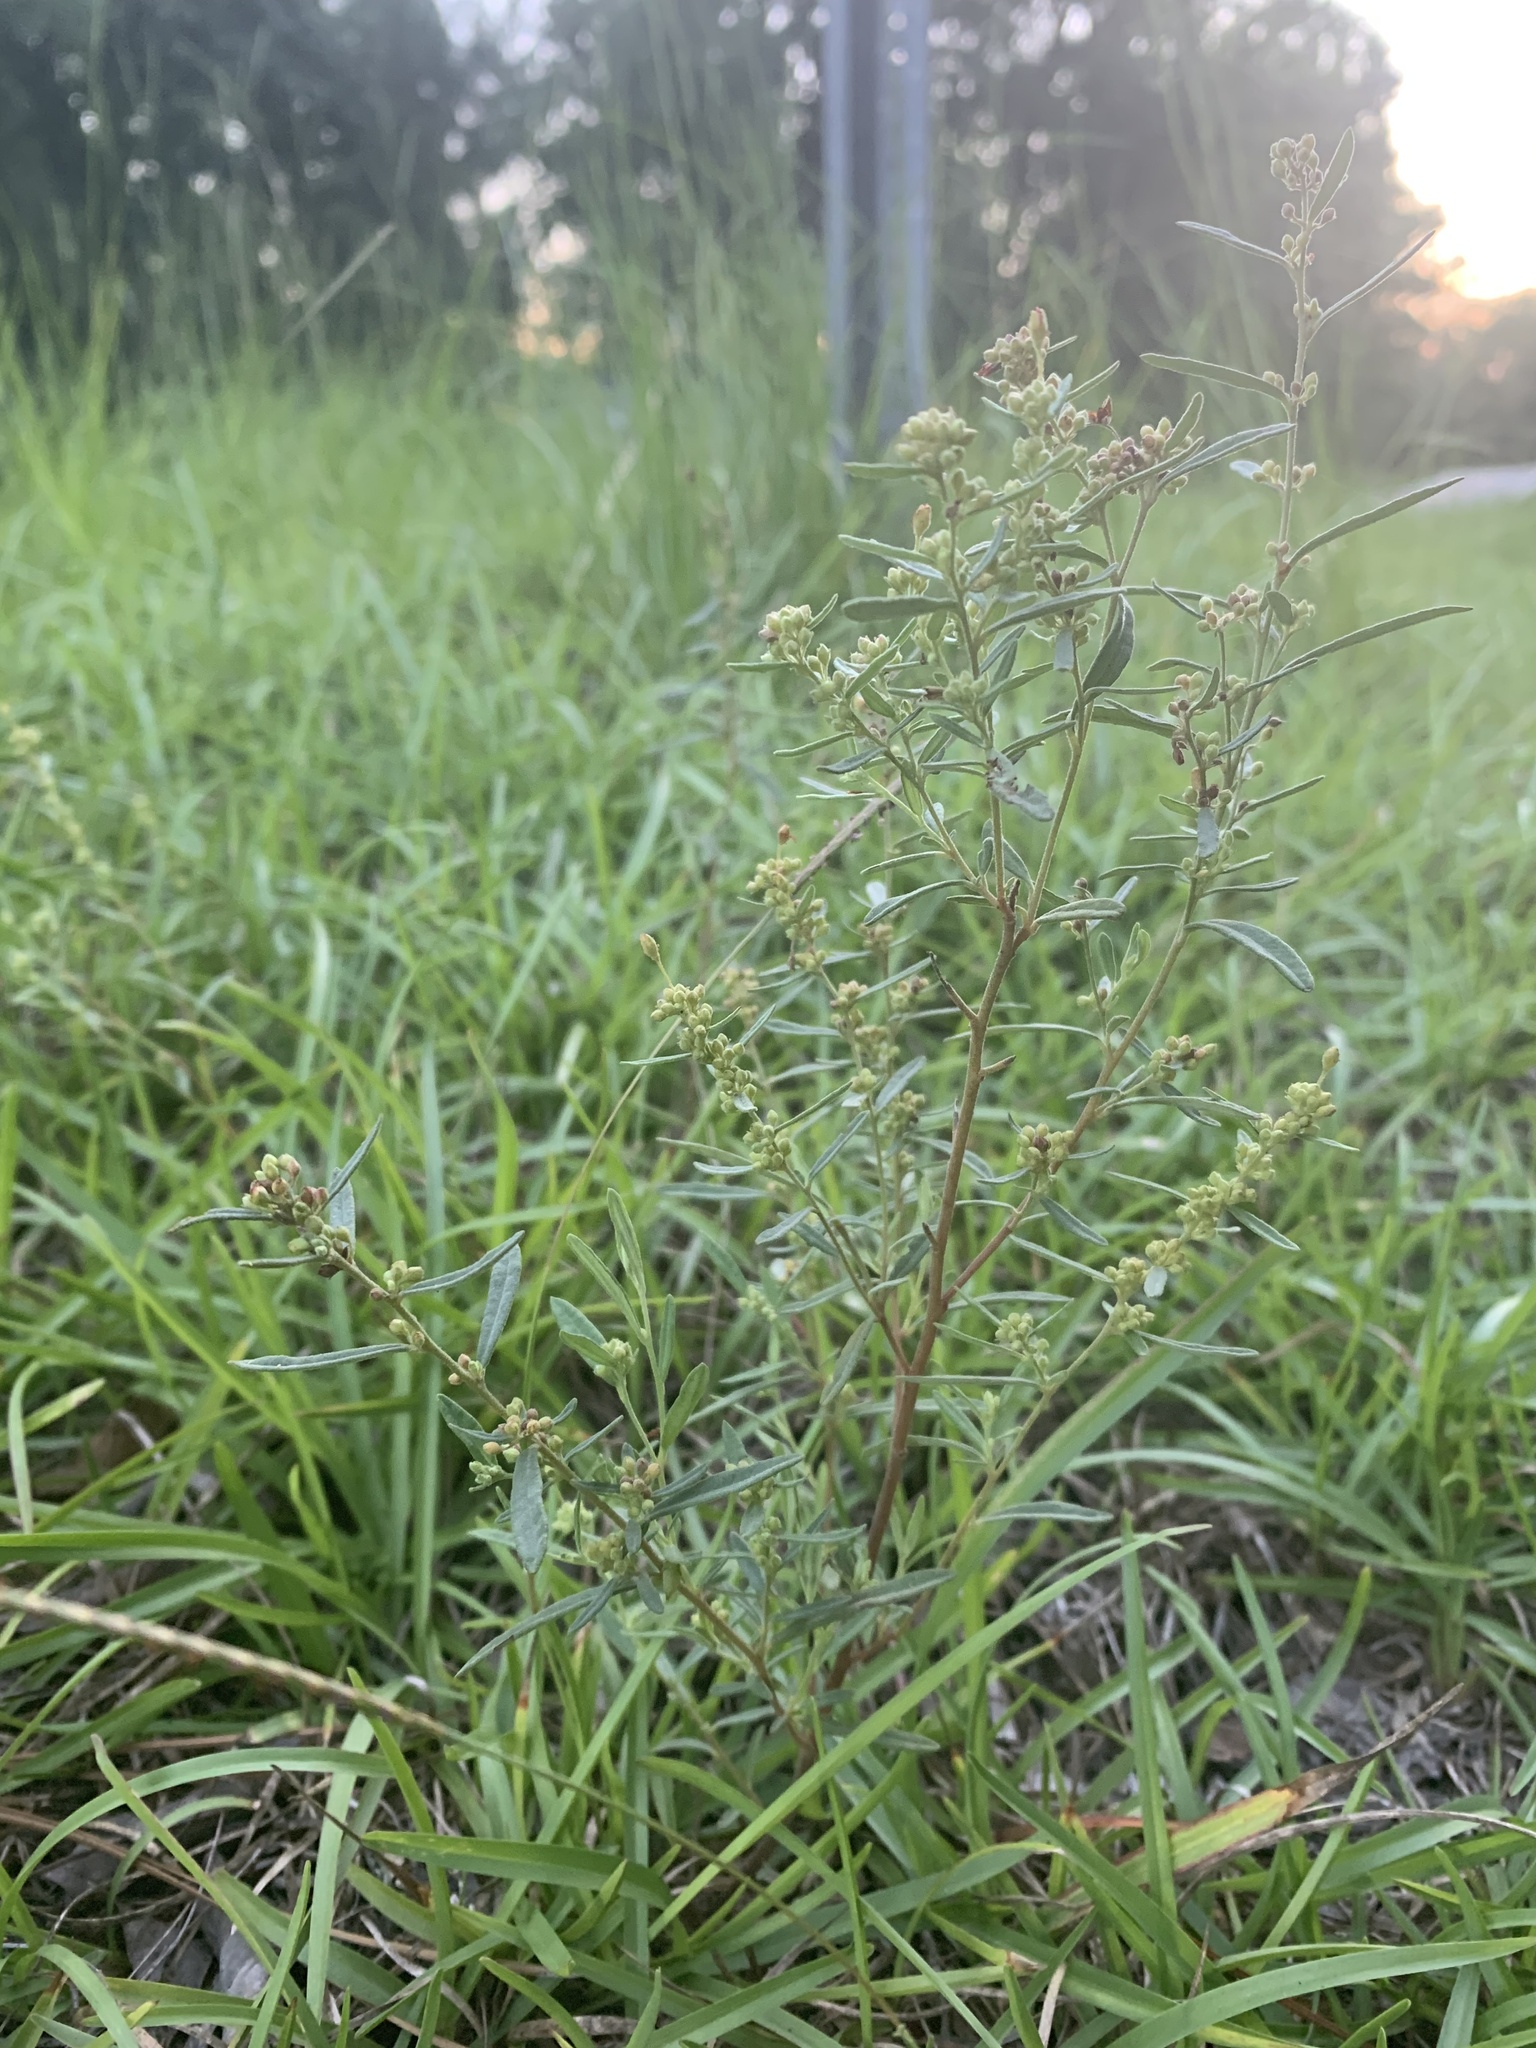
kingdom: Plantae
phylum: Tracheophyta
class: Magnoliopsida
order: Malvales
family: Cistaceae
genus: Crocanthemum
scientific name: Crocanthemum rosmarinifolium
